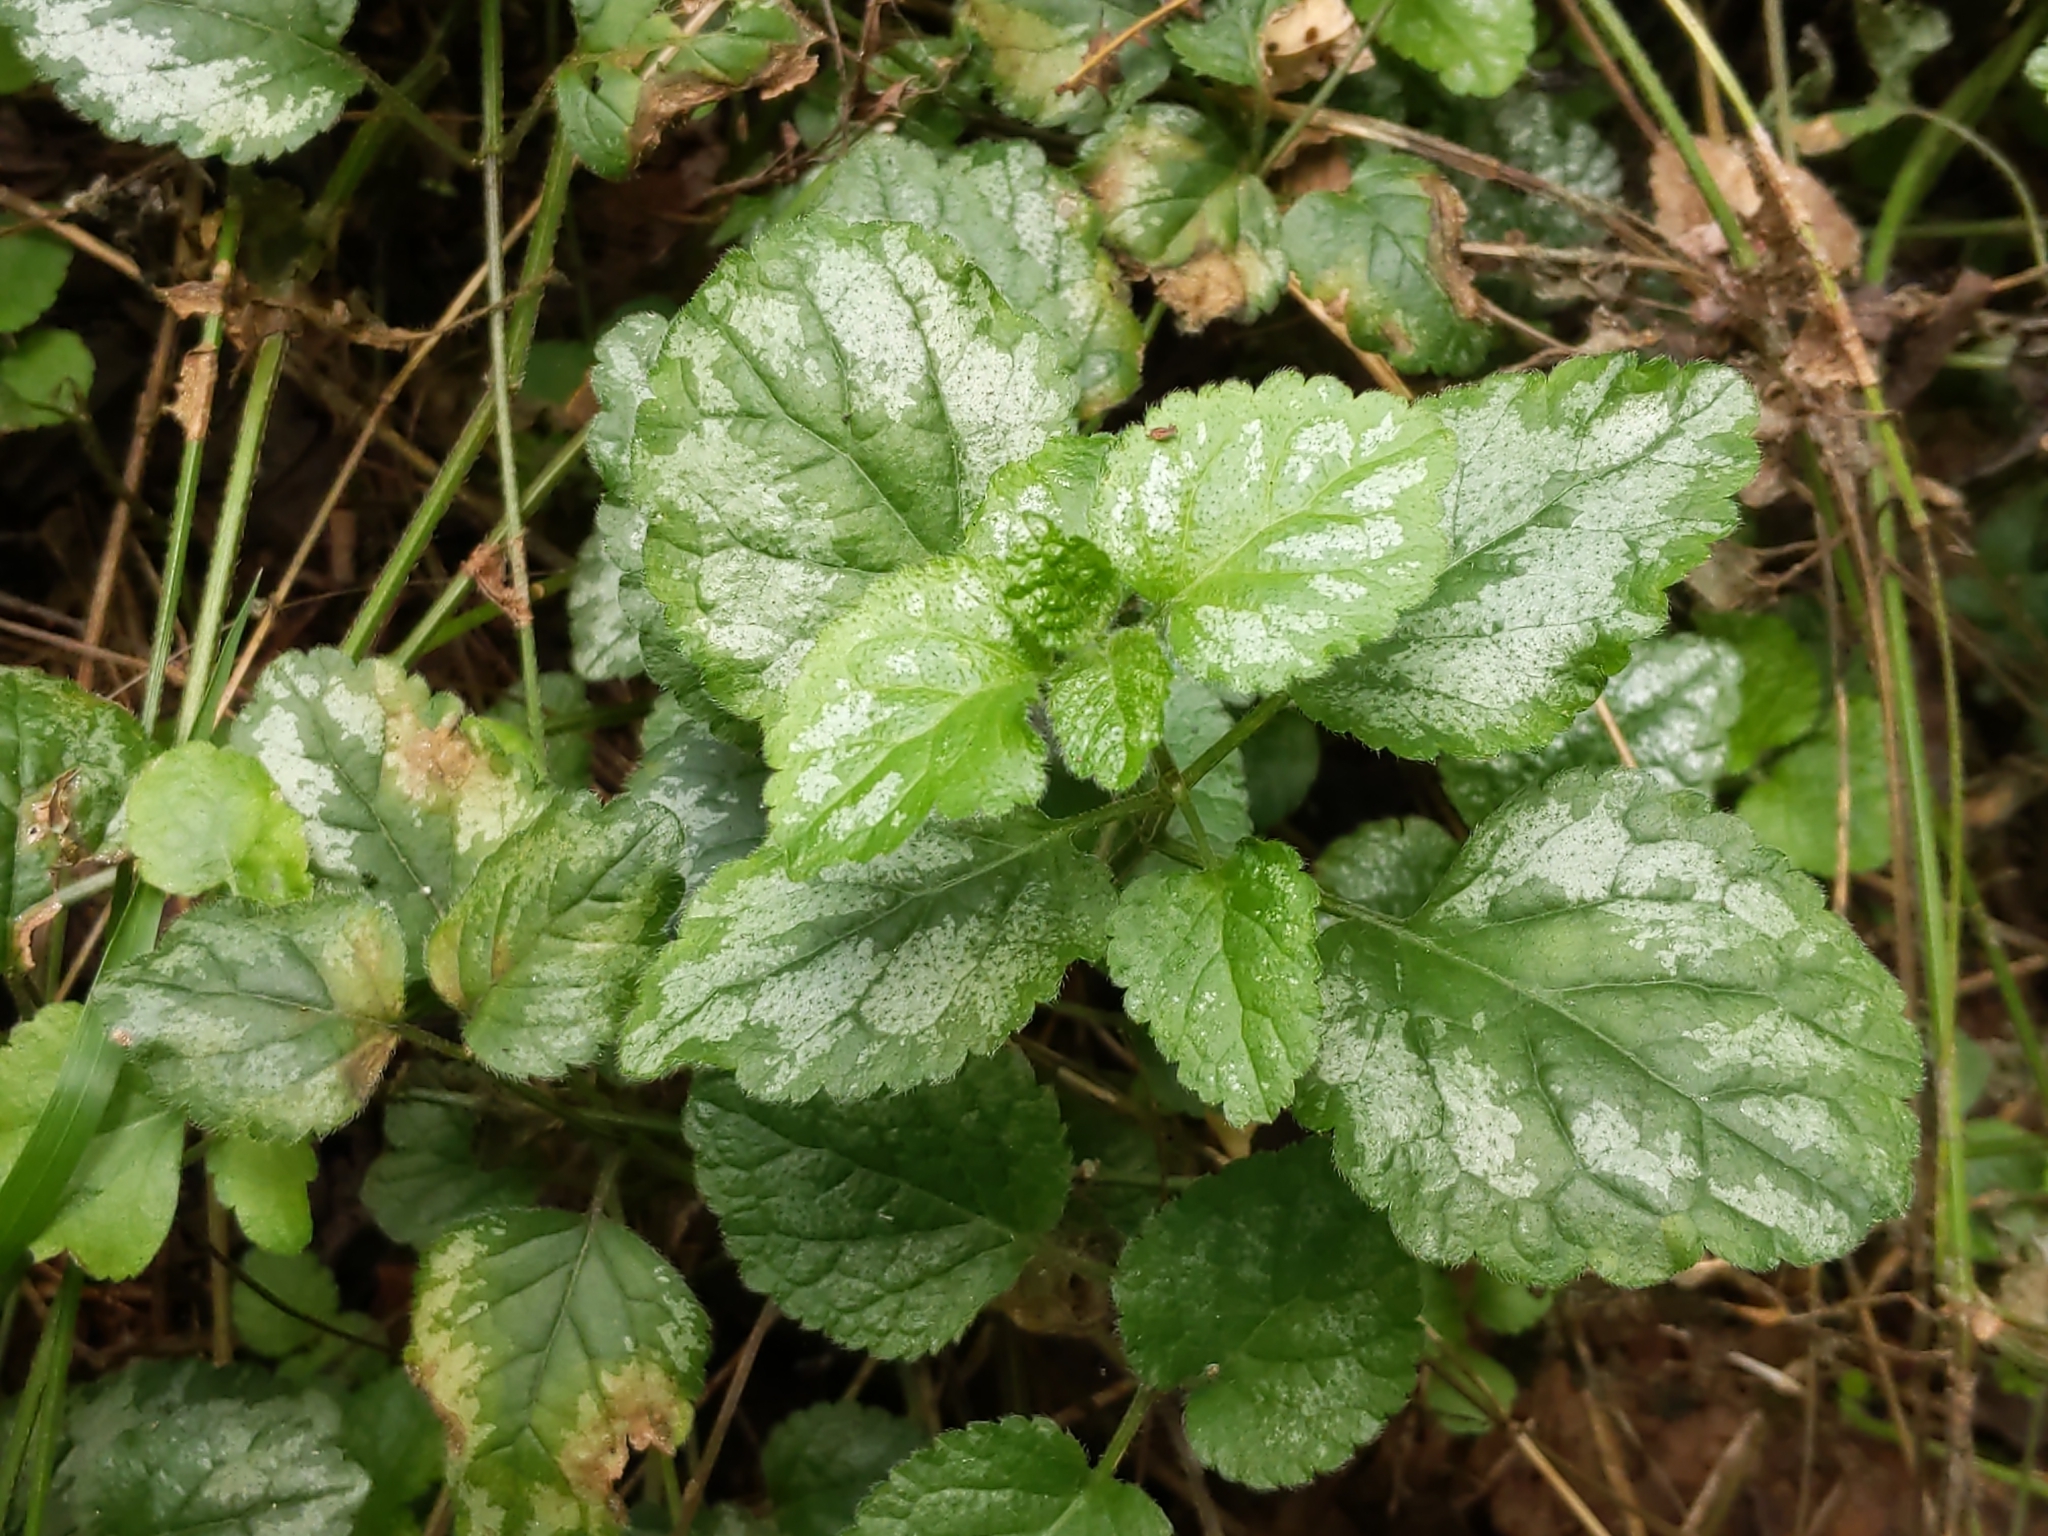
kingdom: Plantae
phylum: Tracheophyta
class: Magnoliopsida
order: Lamiales
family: Lamiaceae
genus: Lamium
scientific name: Lamium galeobdolon
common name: Yellow archangel
